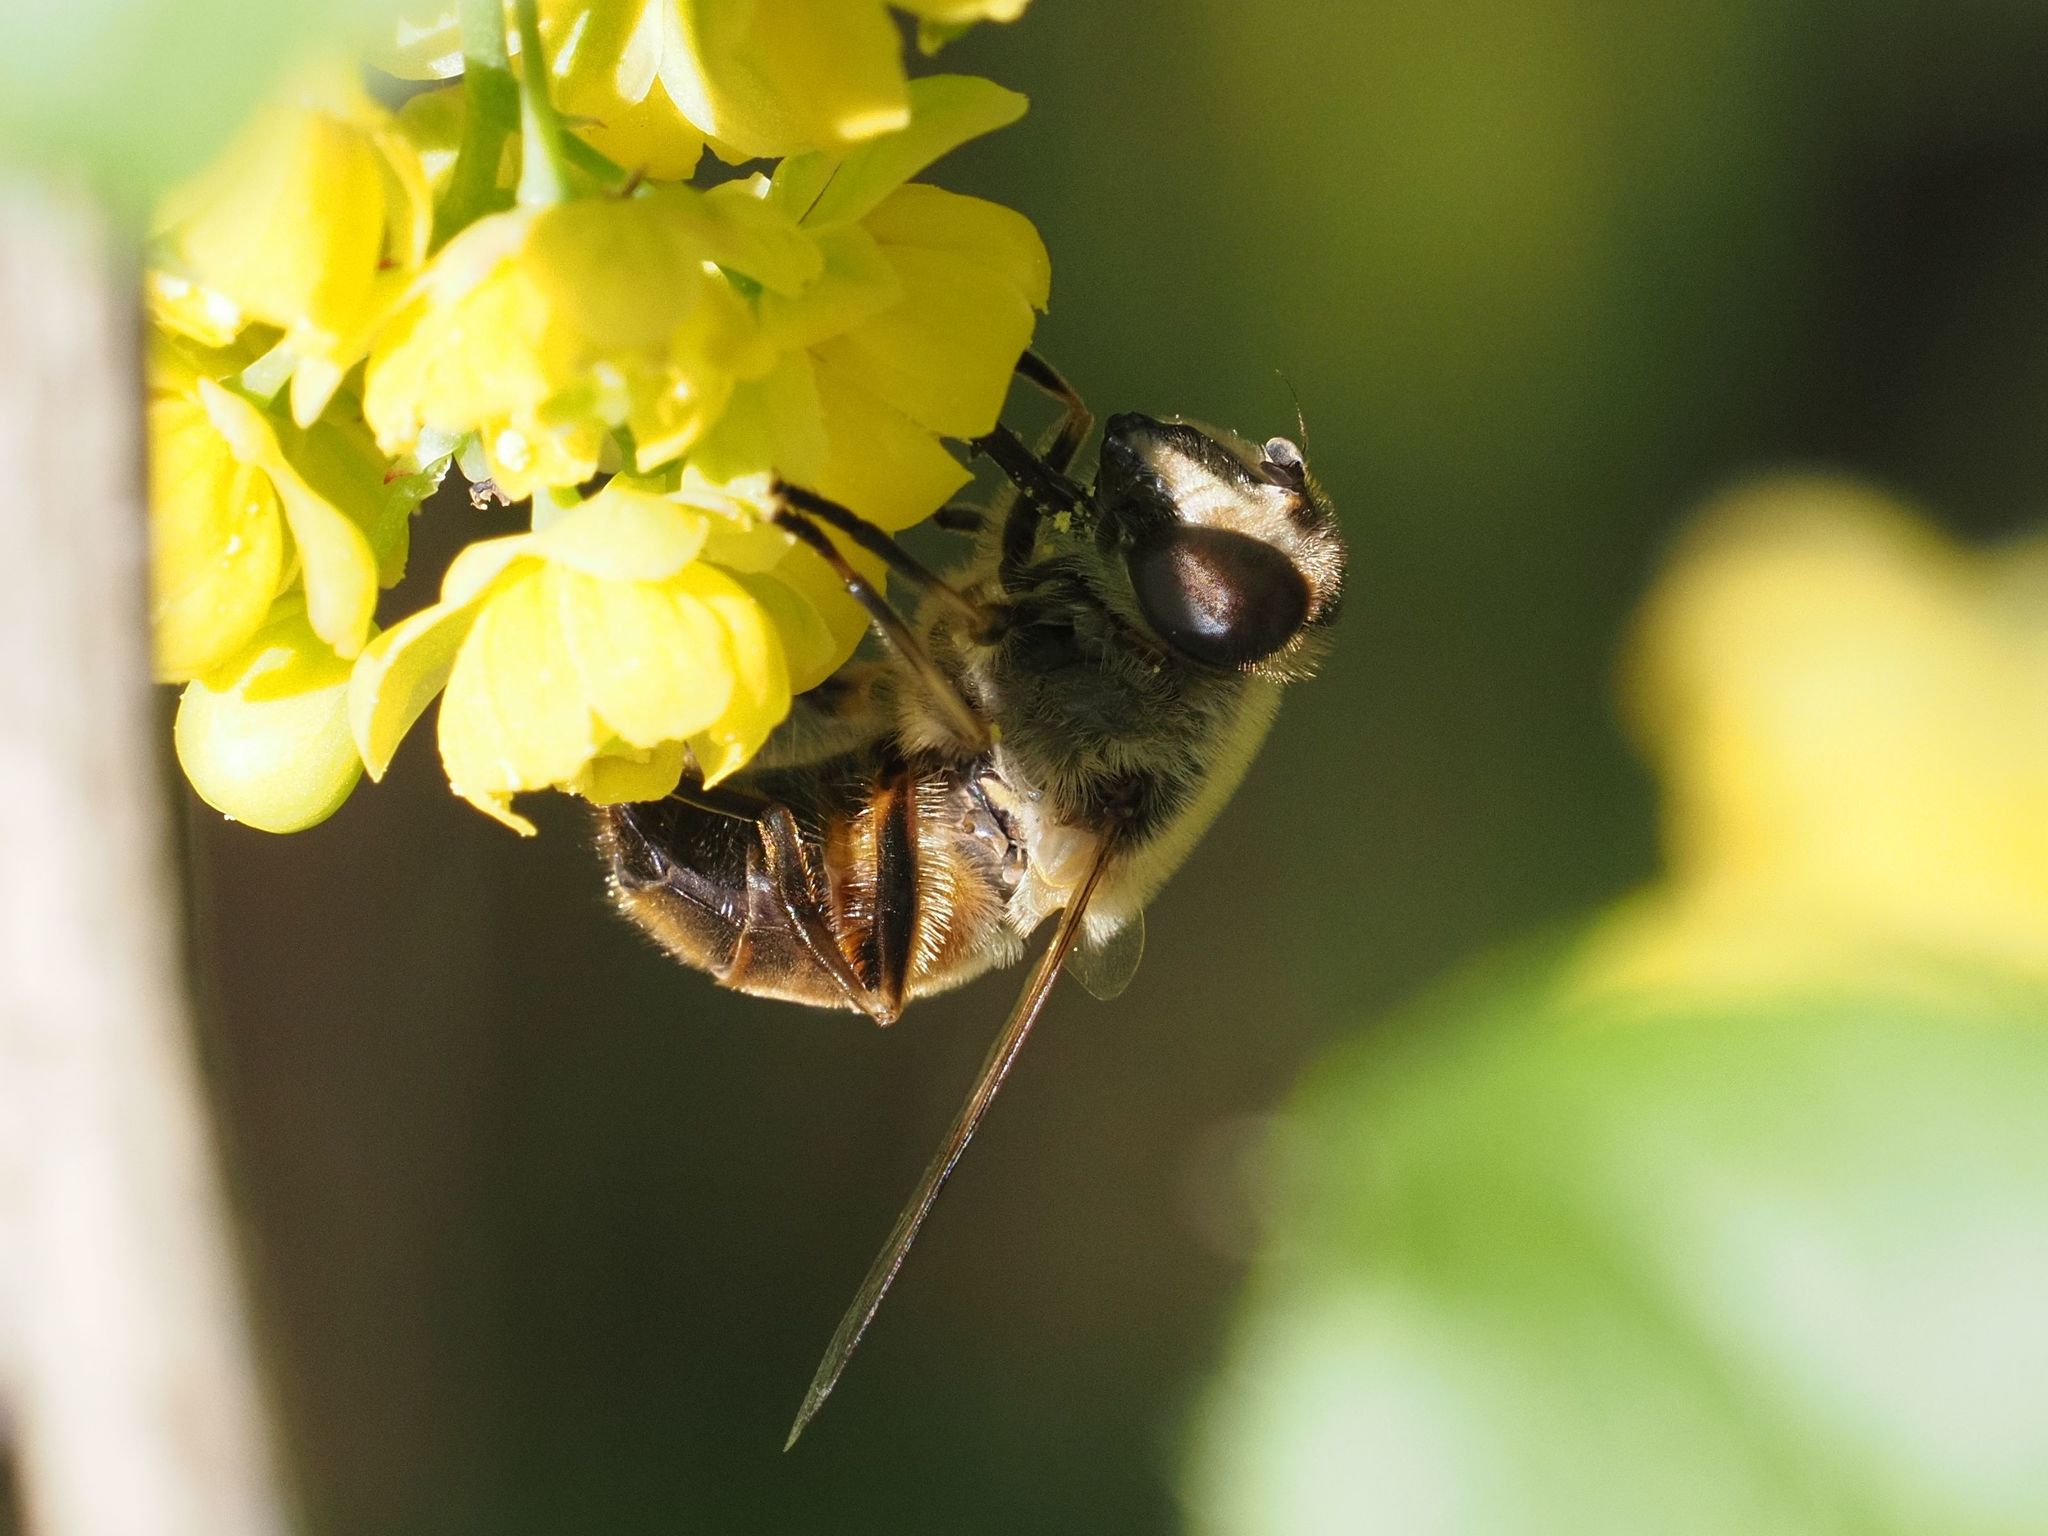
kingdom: Animalia
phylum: Arthropoda
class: Insecta
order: Diptera
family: Syrphidae
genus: Eristalis
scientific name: Eristalis tenax
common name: Drone fly
